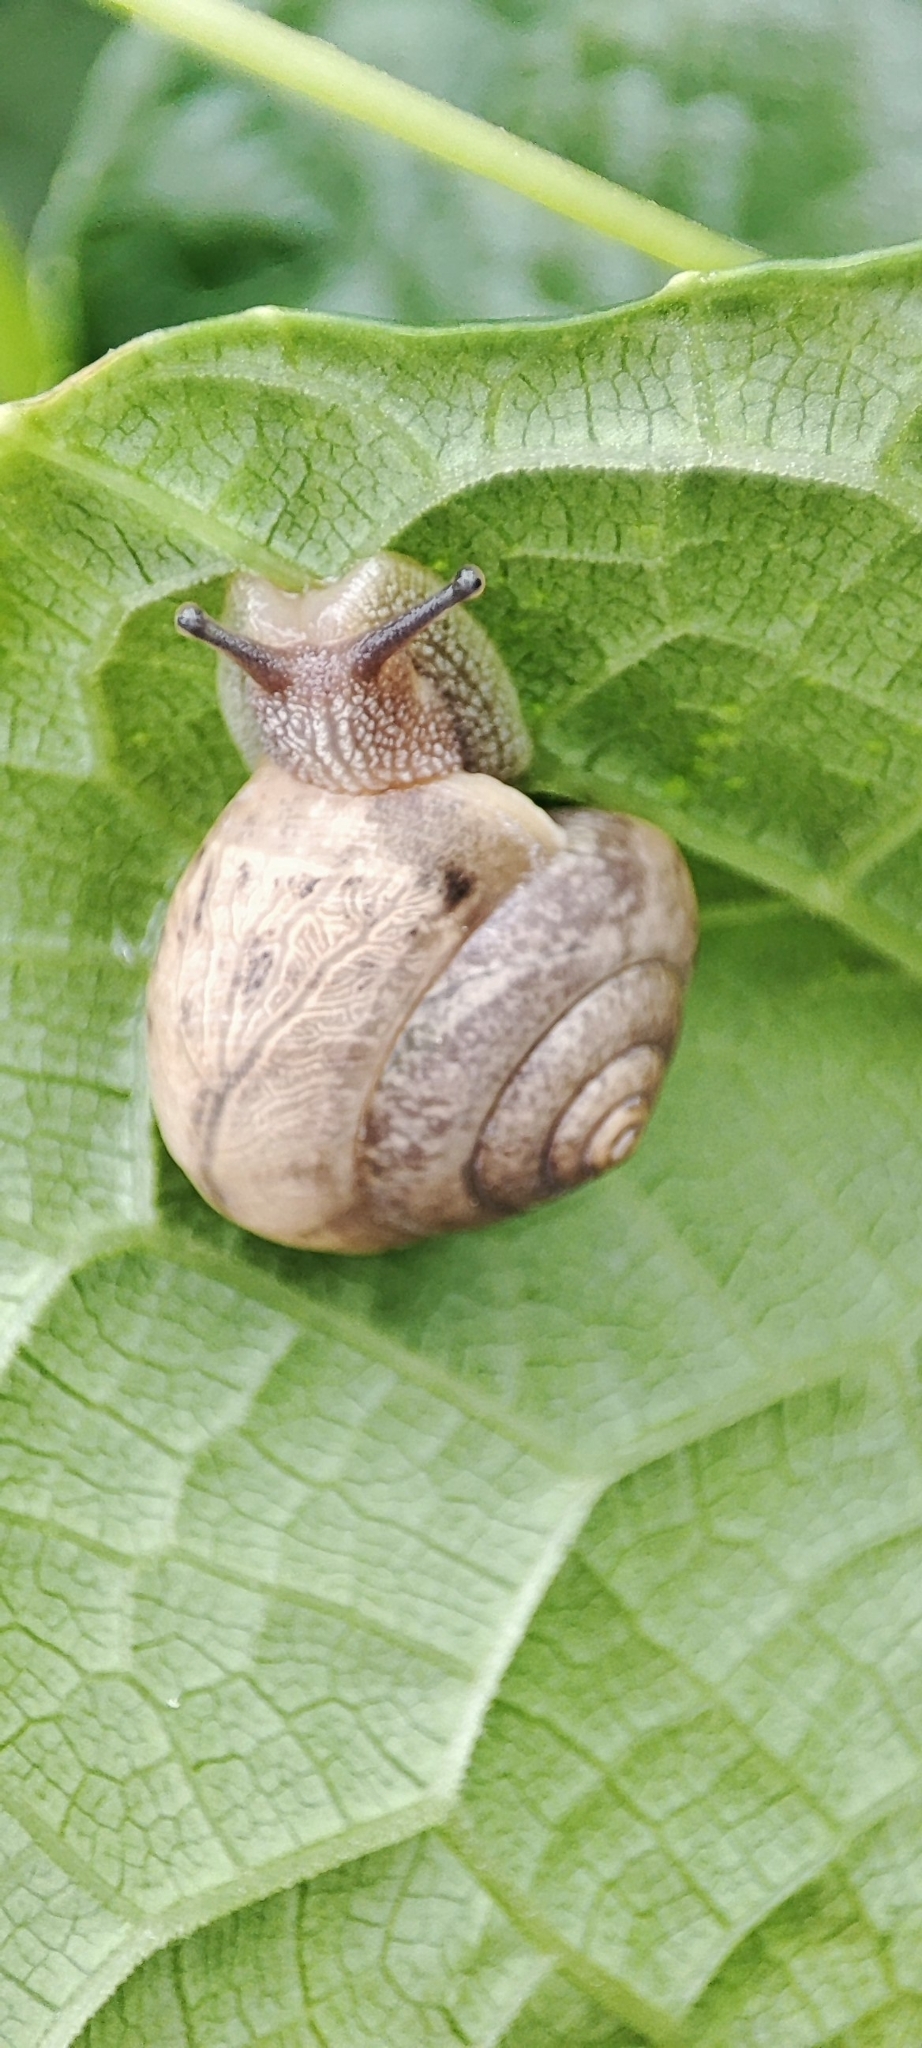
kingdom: Animalia
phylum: Mollusca
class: Gastropoda
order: Stylommatophora
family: Camaenidae
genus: Bradybaena
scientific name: Bradybaena similaris
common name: Asian trampsnail
